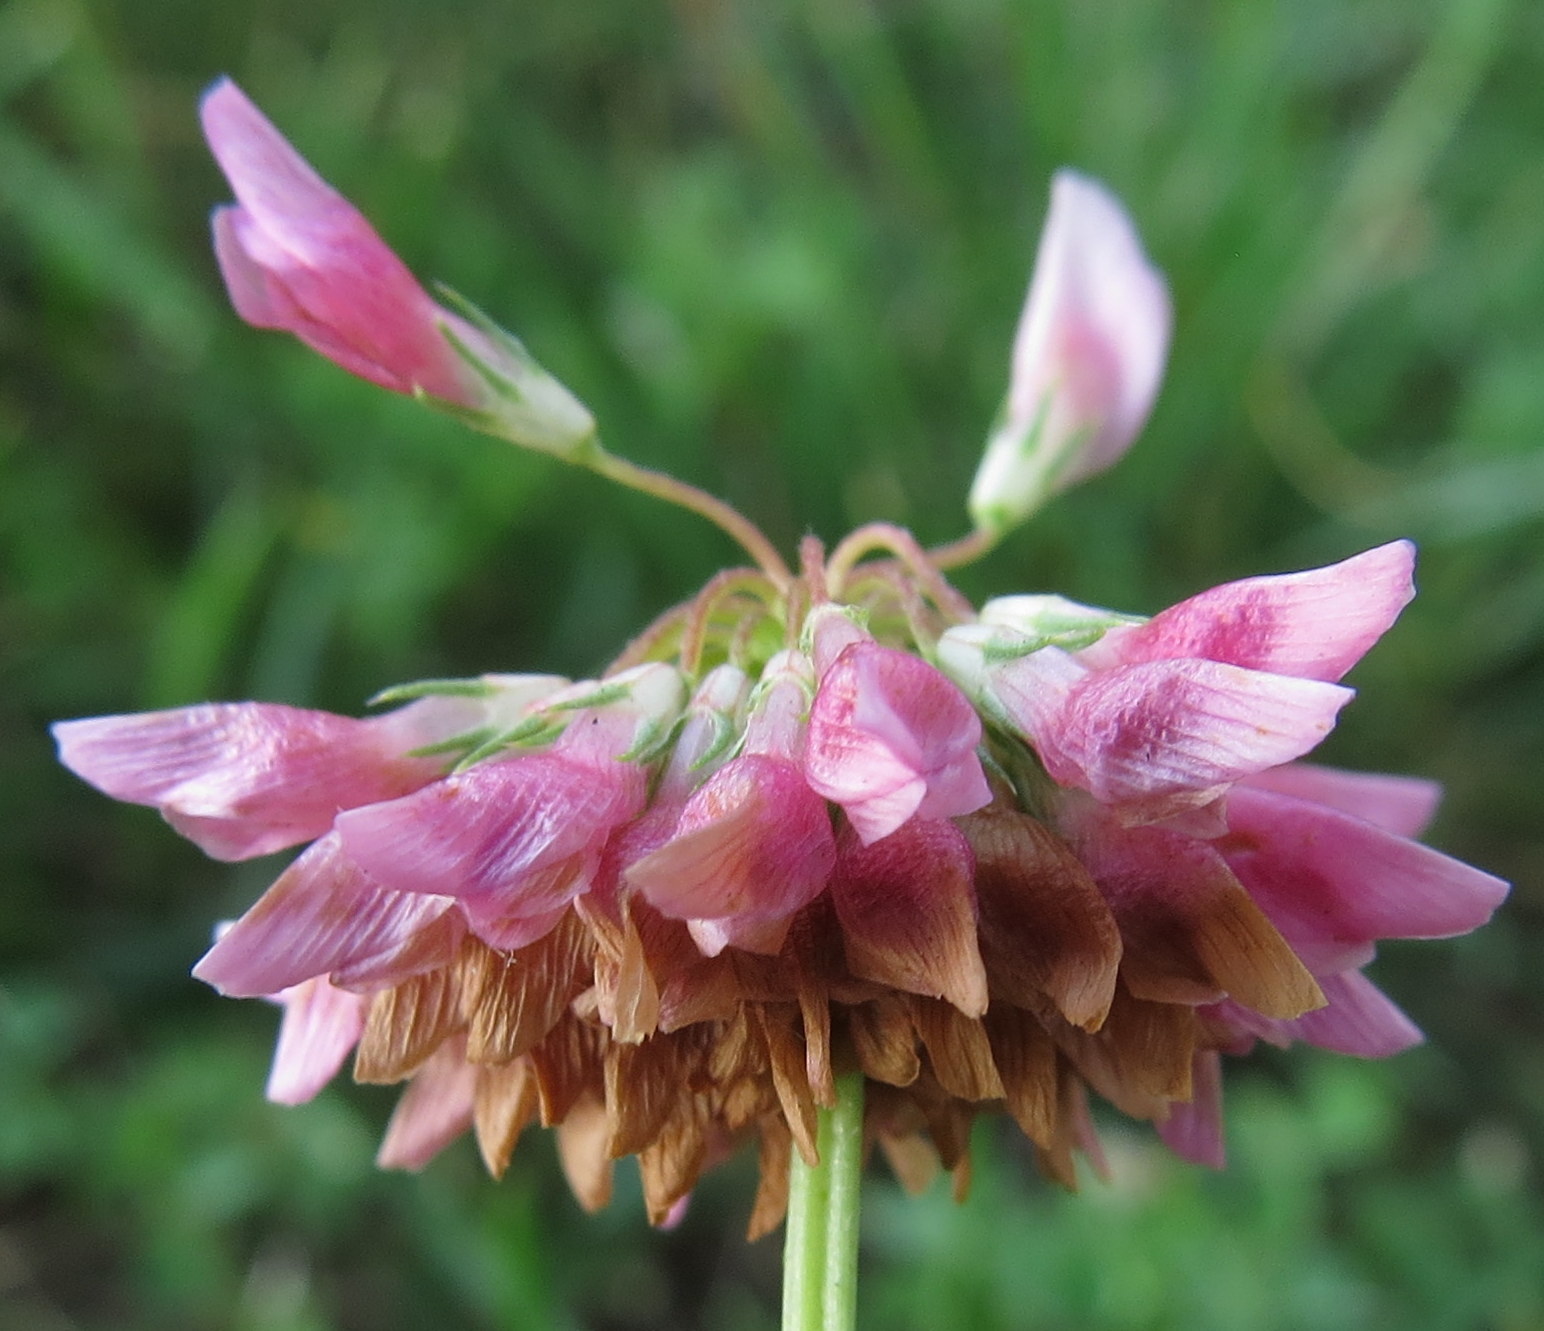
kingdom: Plantae
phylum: Tracheophyta
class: Magnoliopsida
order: Fabales
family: Fabaceae
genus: Trifolium
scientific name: Trifolium hybridum
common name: Alsike clover
